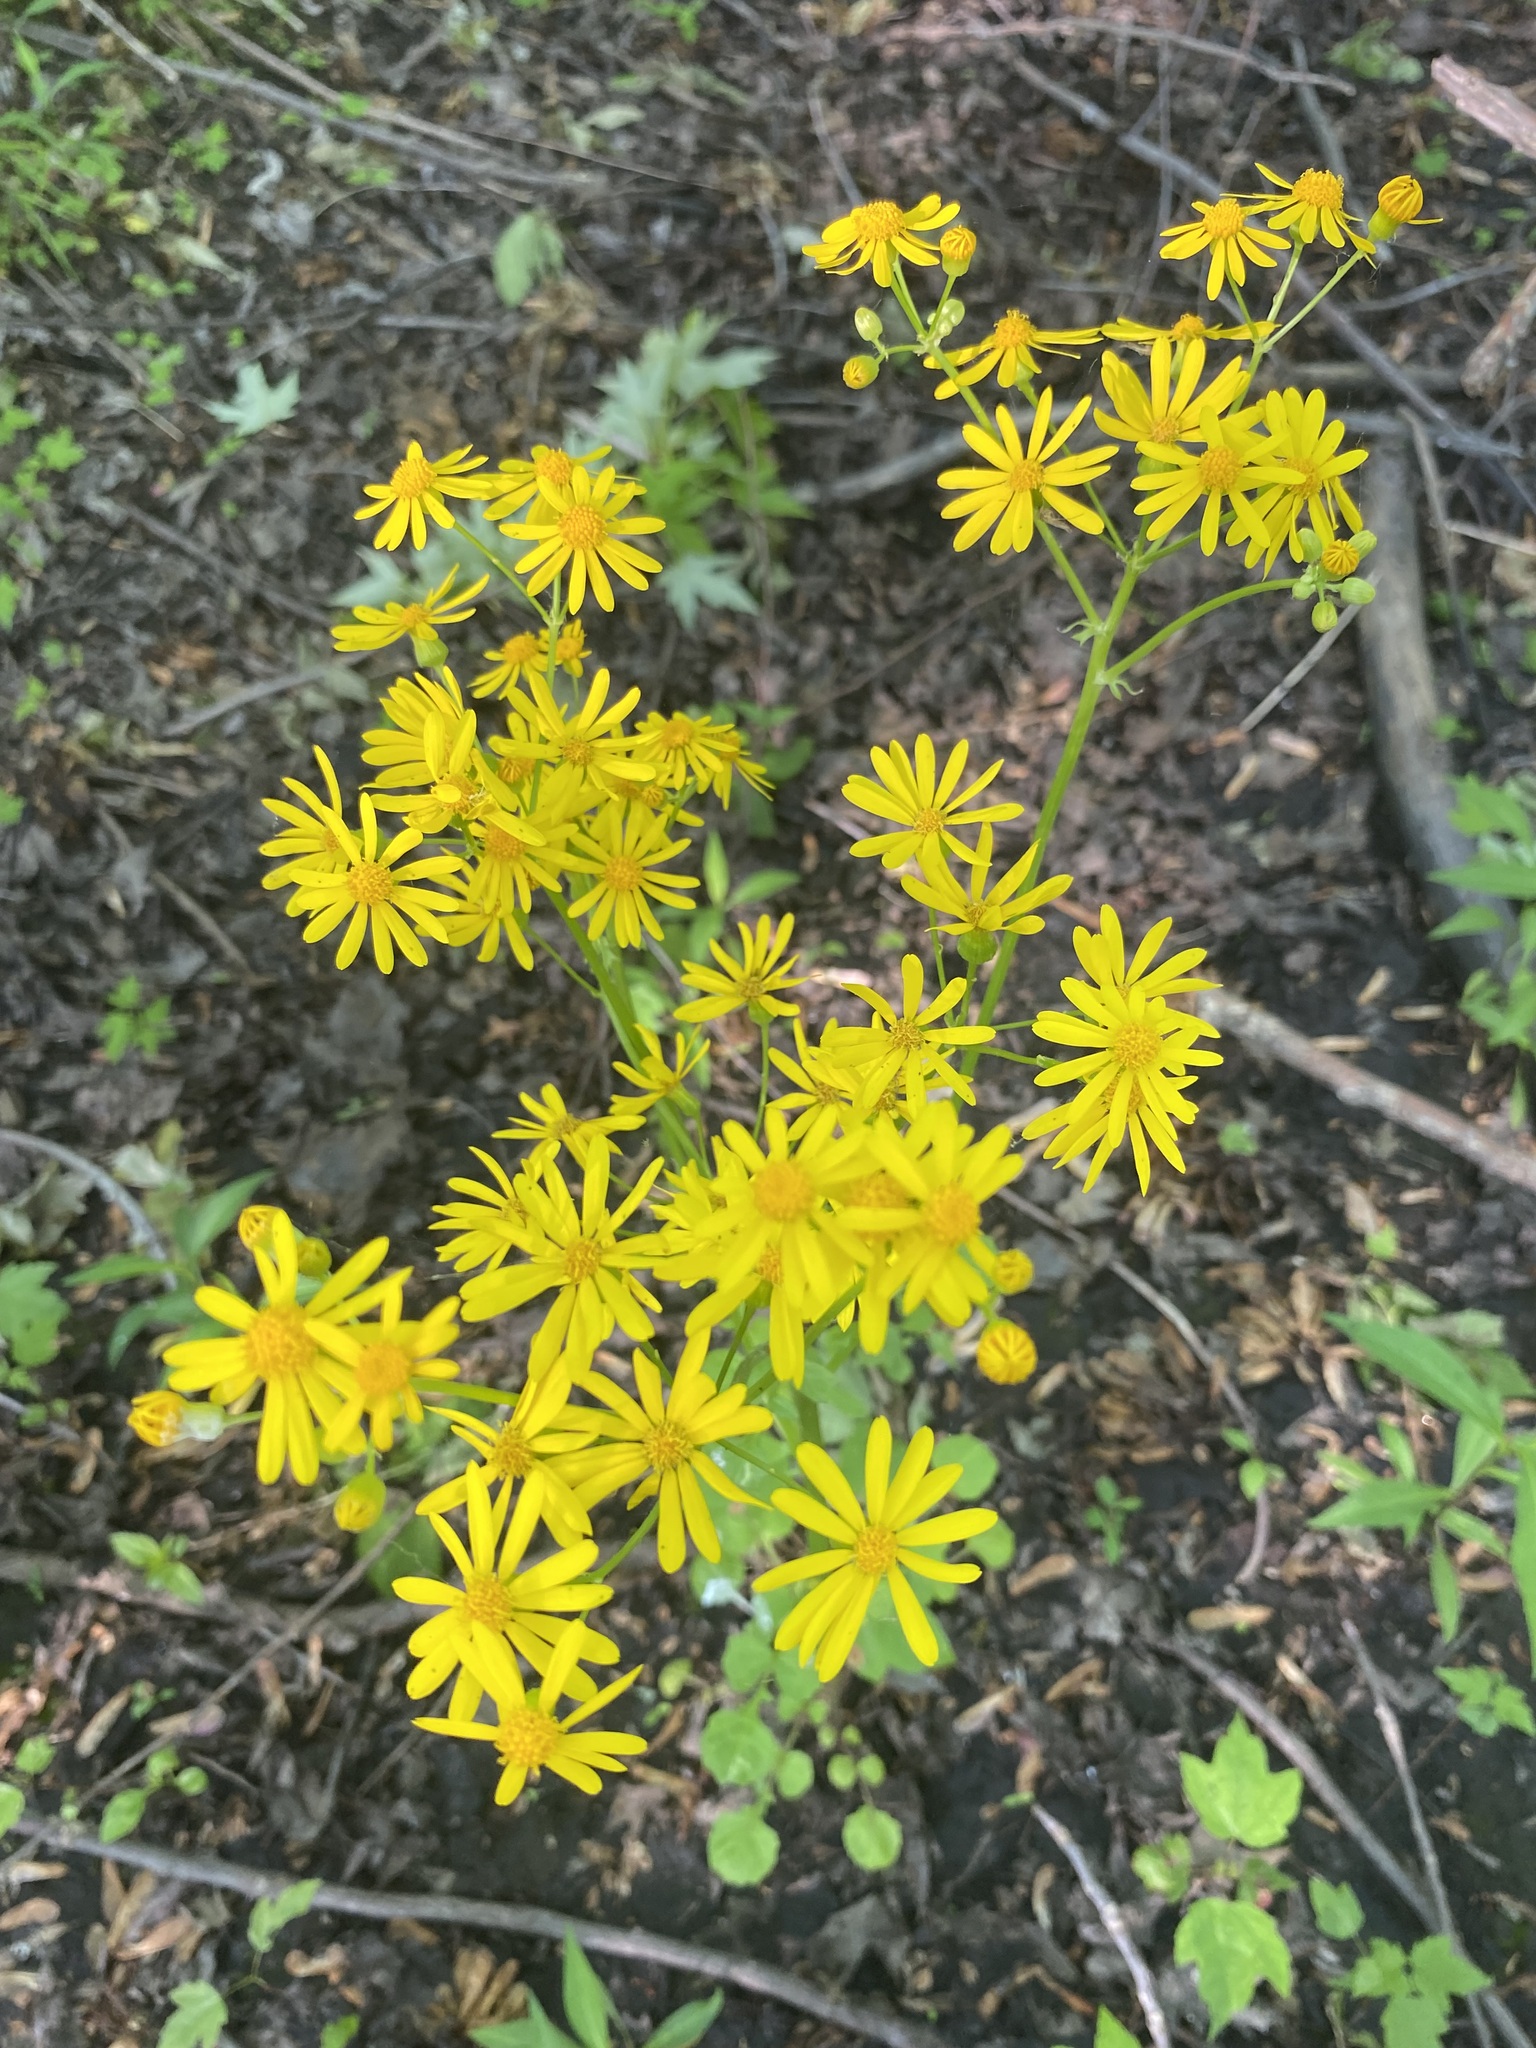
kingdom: Plantae
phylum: Tracheophyta
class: Magnoliopsida
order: Asterales
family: Asteraceae
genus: Packera
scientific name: Packera glabella
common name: Butterweed
